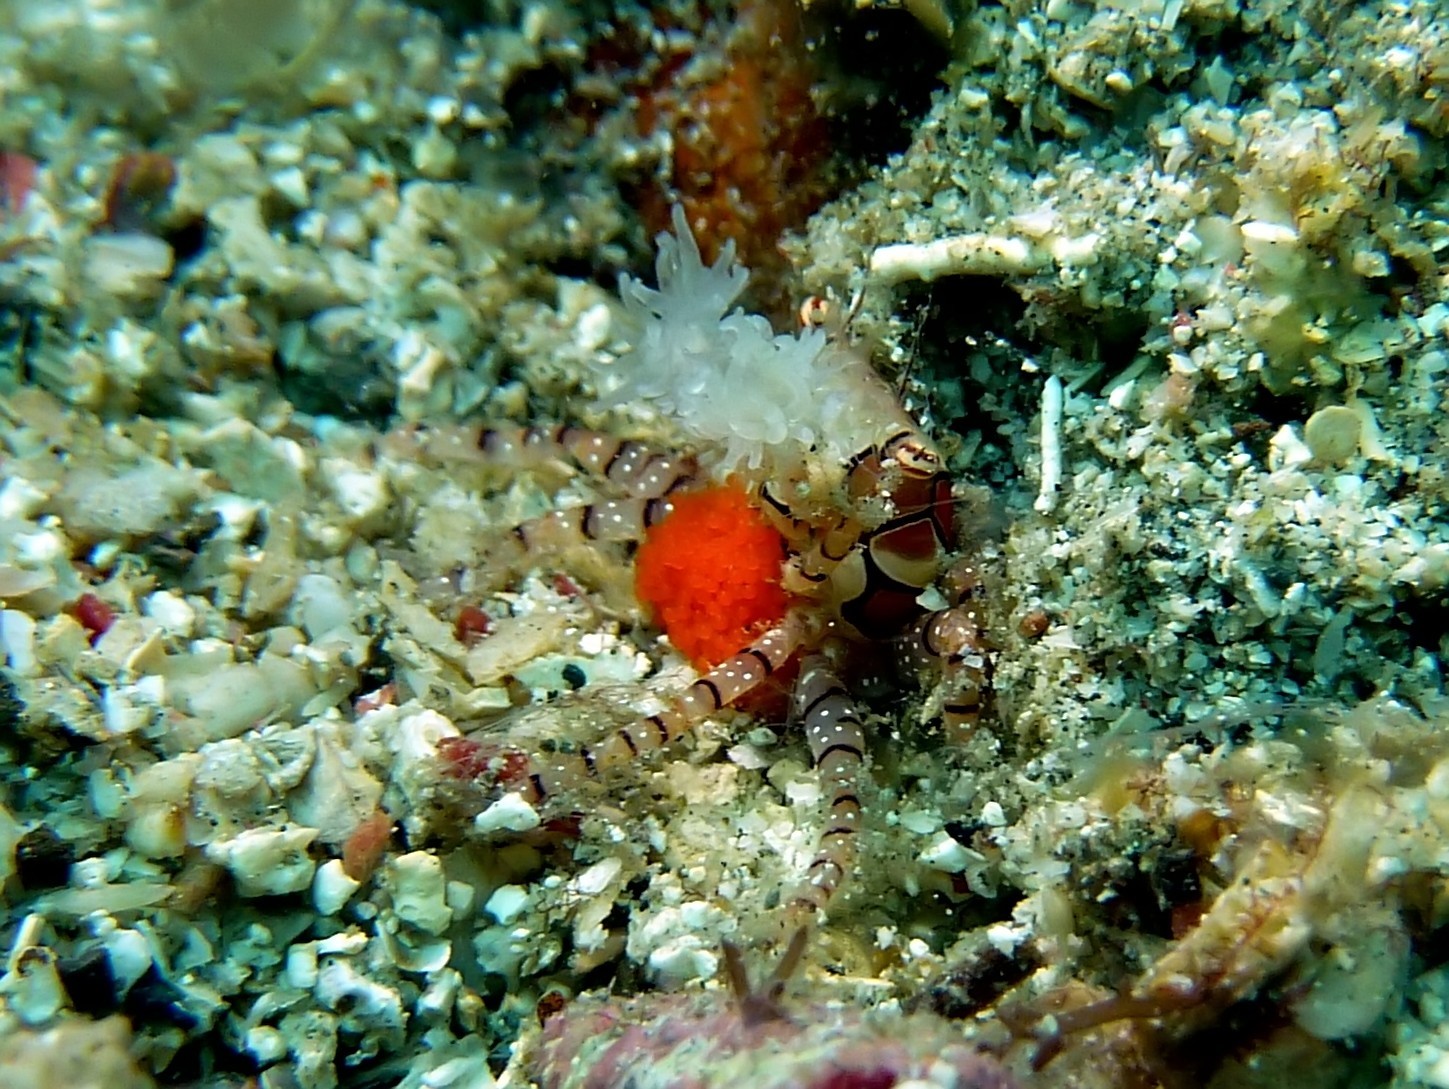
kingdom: Animalia
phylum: Arthropoda
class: Malacostraca
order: Decapoda
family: Xanthidae
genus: Lybia
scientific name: Lybia tessellata
